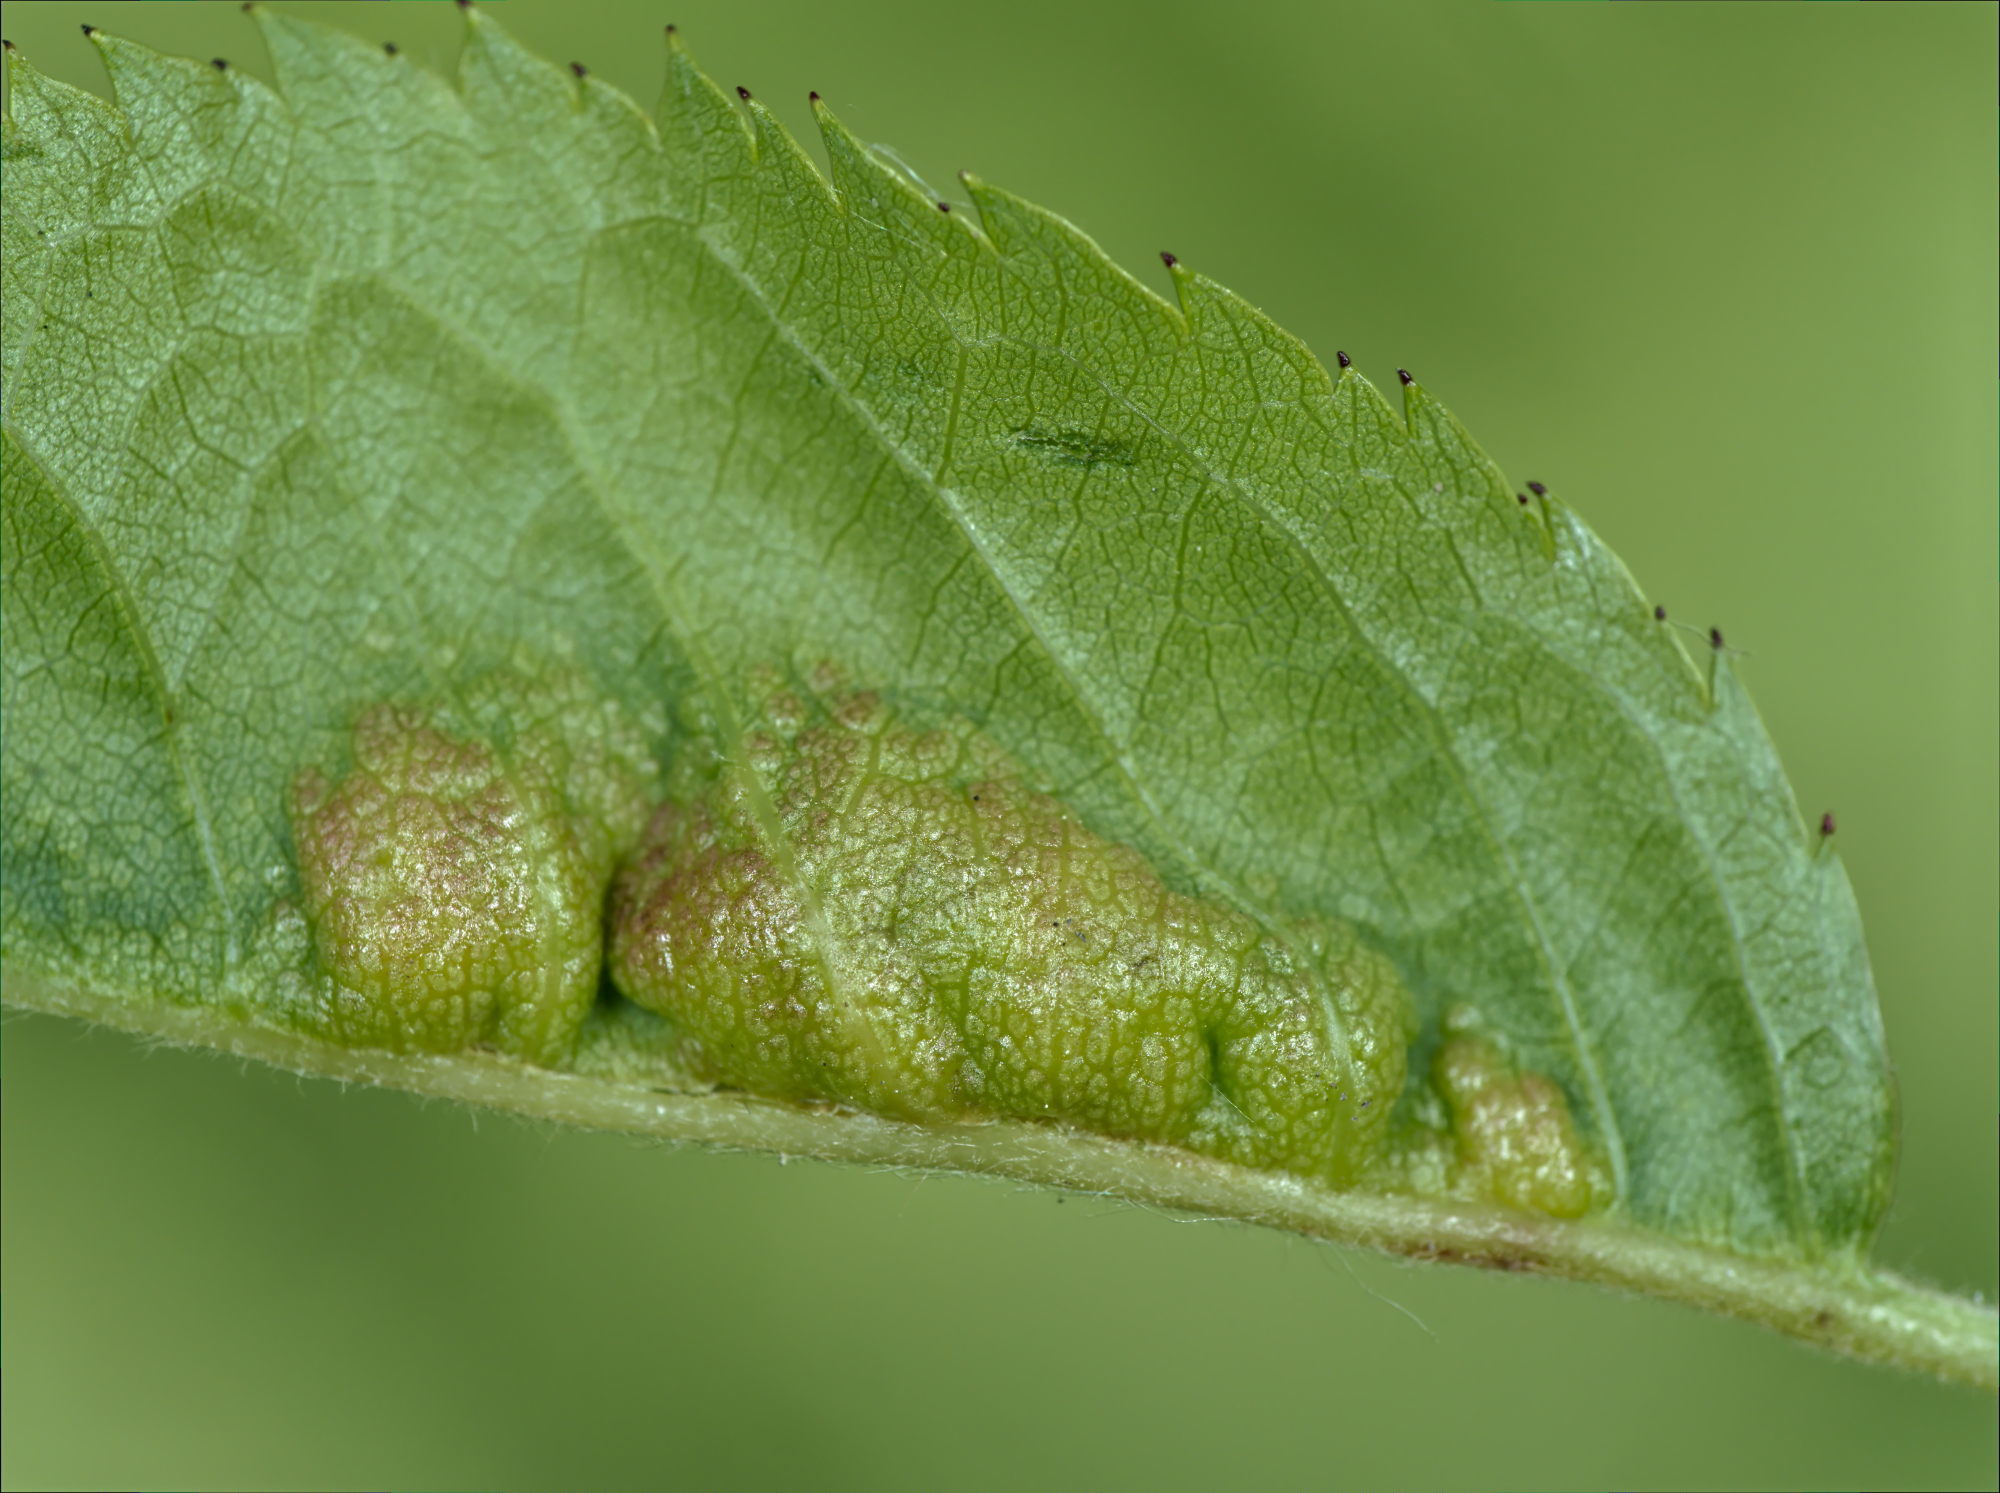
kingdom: Animalia
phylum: Arthropoda
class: Insecta
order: Diptera
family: Cecidomyiidae
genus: Wachtliella
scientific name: Wachtliella rosae
